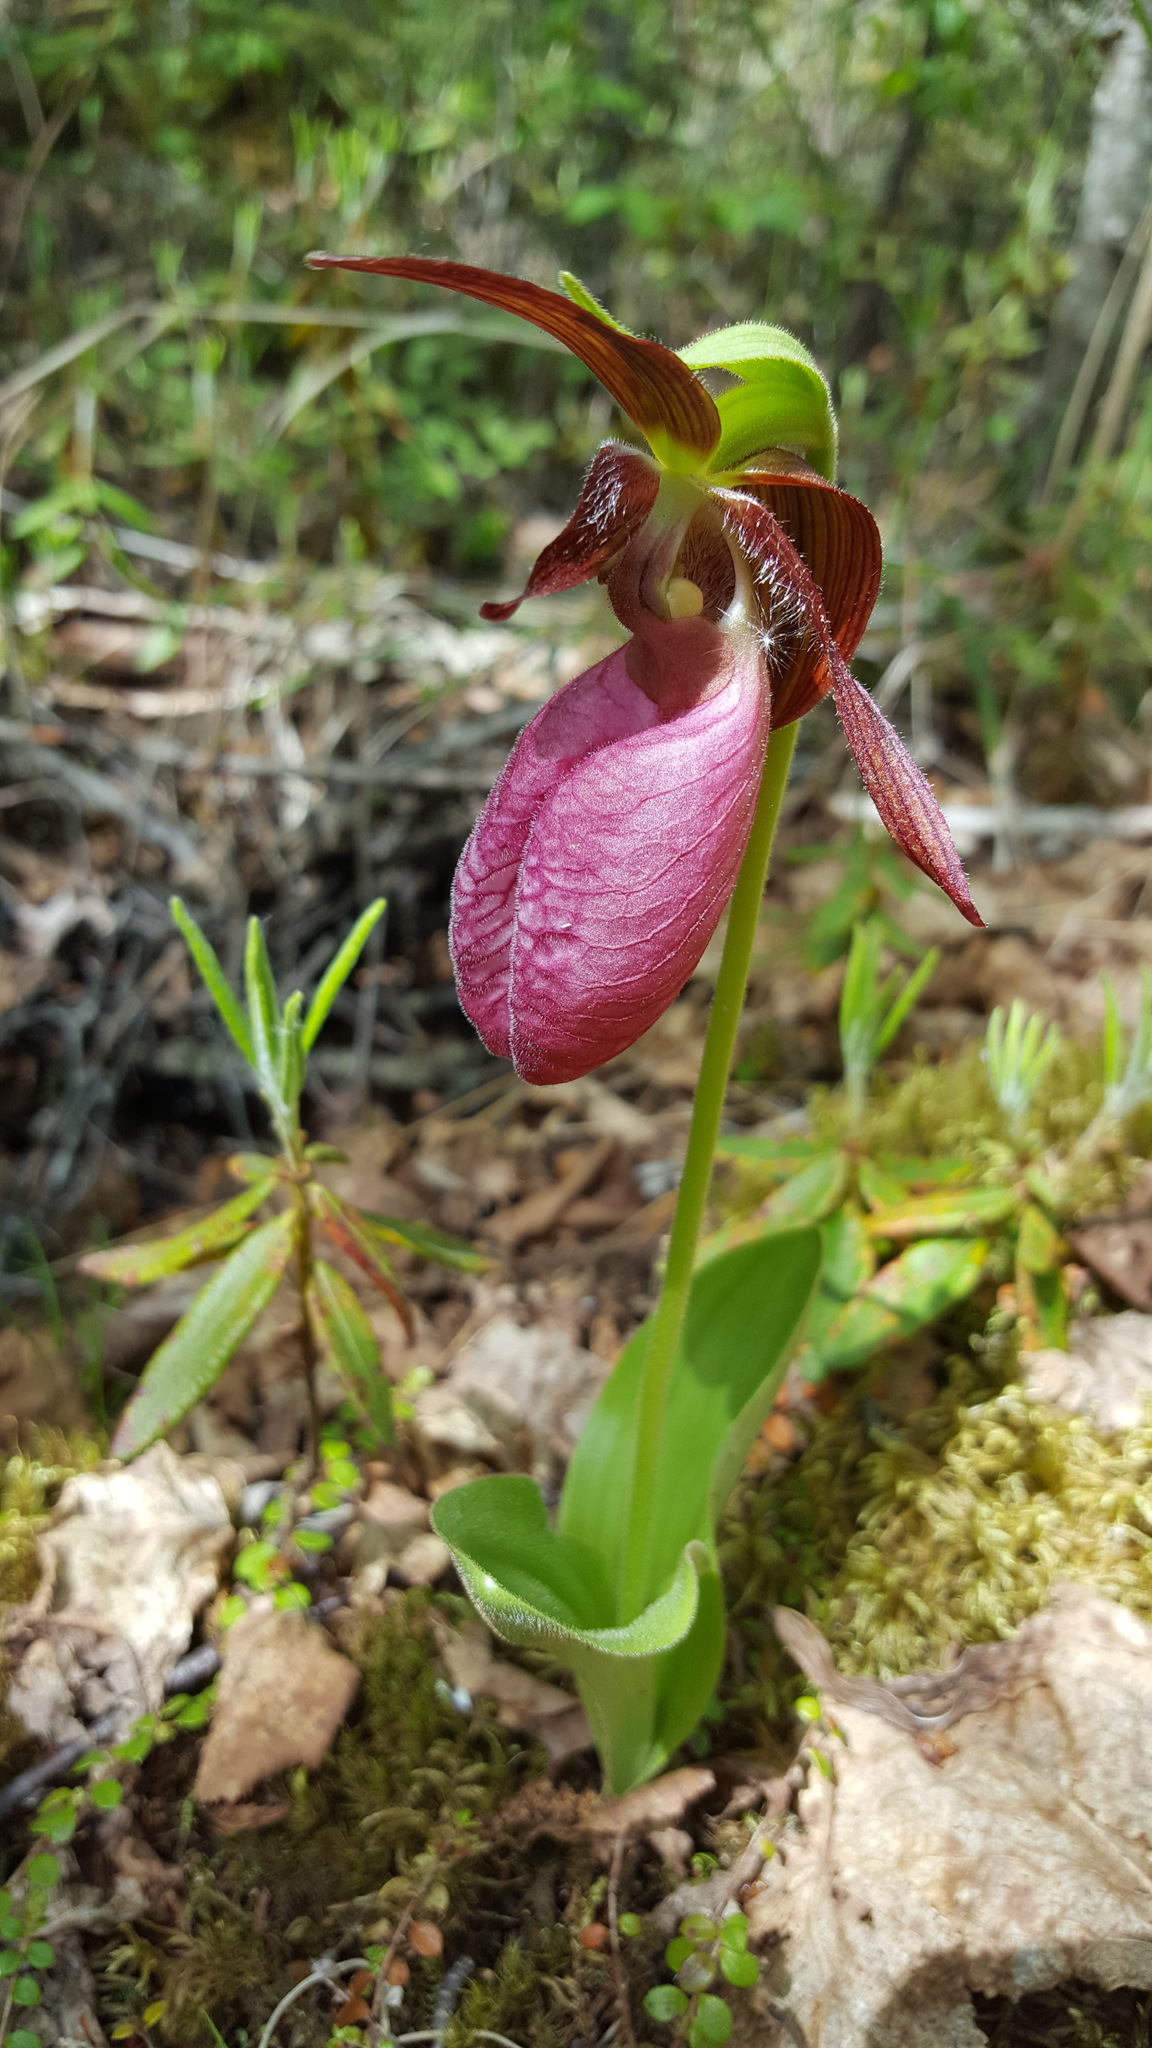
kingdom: Plantae
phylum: Tracheophyta
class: Liliopsida
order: Asparagales
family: Orchidaceae
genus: Cypripedium
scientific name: Cypripedium acaule
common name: Pink lady's-slipper
